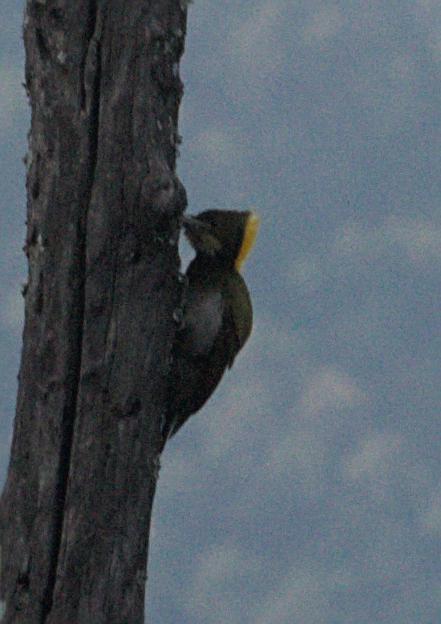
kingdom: Animalia
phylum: Chordata
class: Aves
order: Piciformes
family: Picidae
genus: Chrysophlegma
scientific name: Chrysophlegma flavinucha
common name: Greater yellownape
